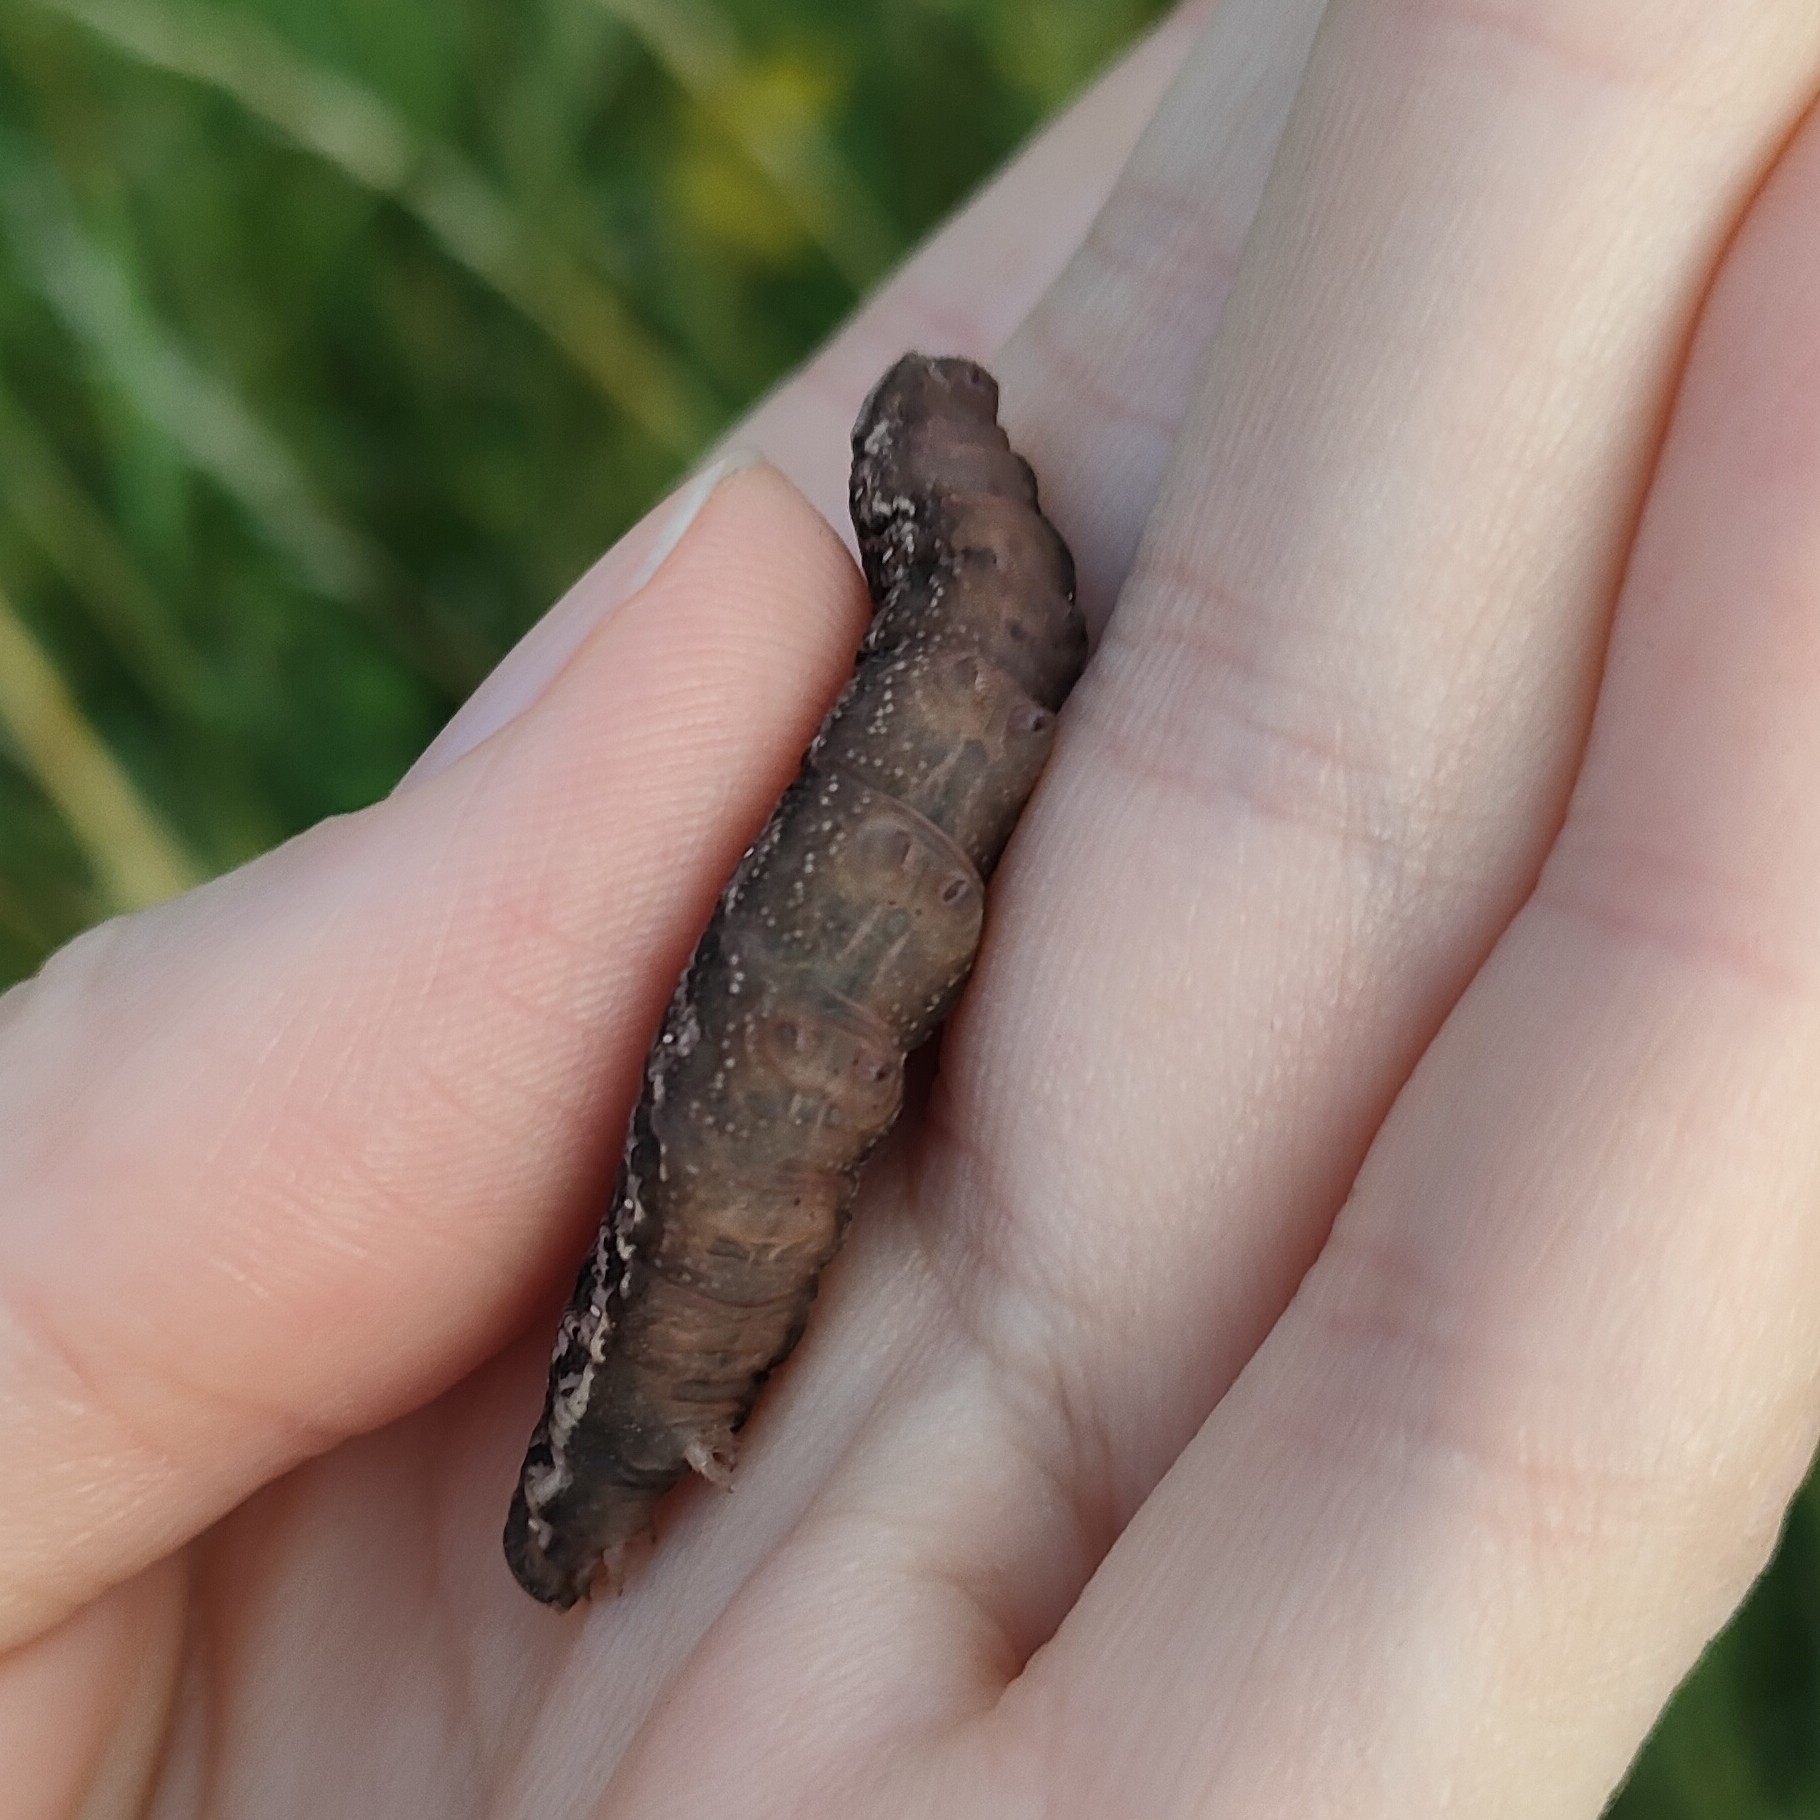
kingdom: Animalia
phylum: Arthropoda
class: Insecta
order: Lepidoptera
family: Sphingidae
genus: Deilephila
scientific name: Deilephila porcellus
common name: Small elephant hawk-moth
